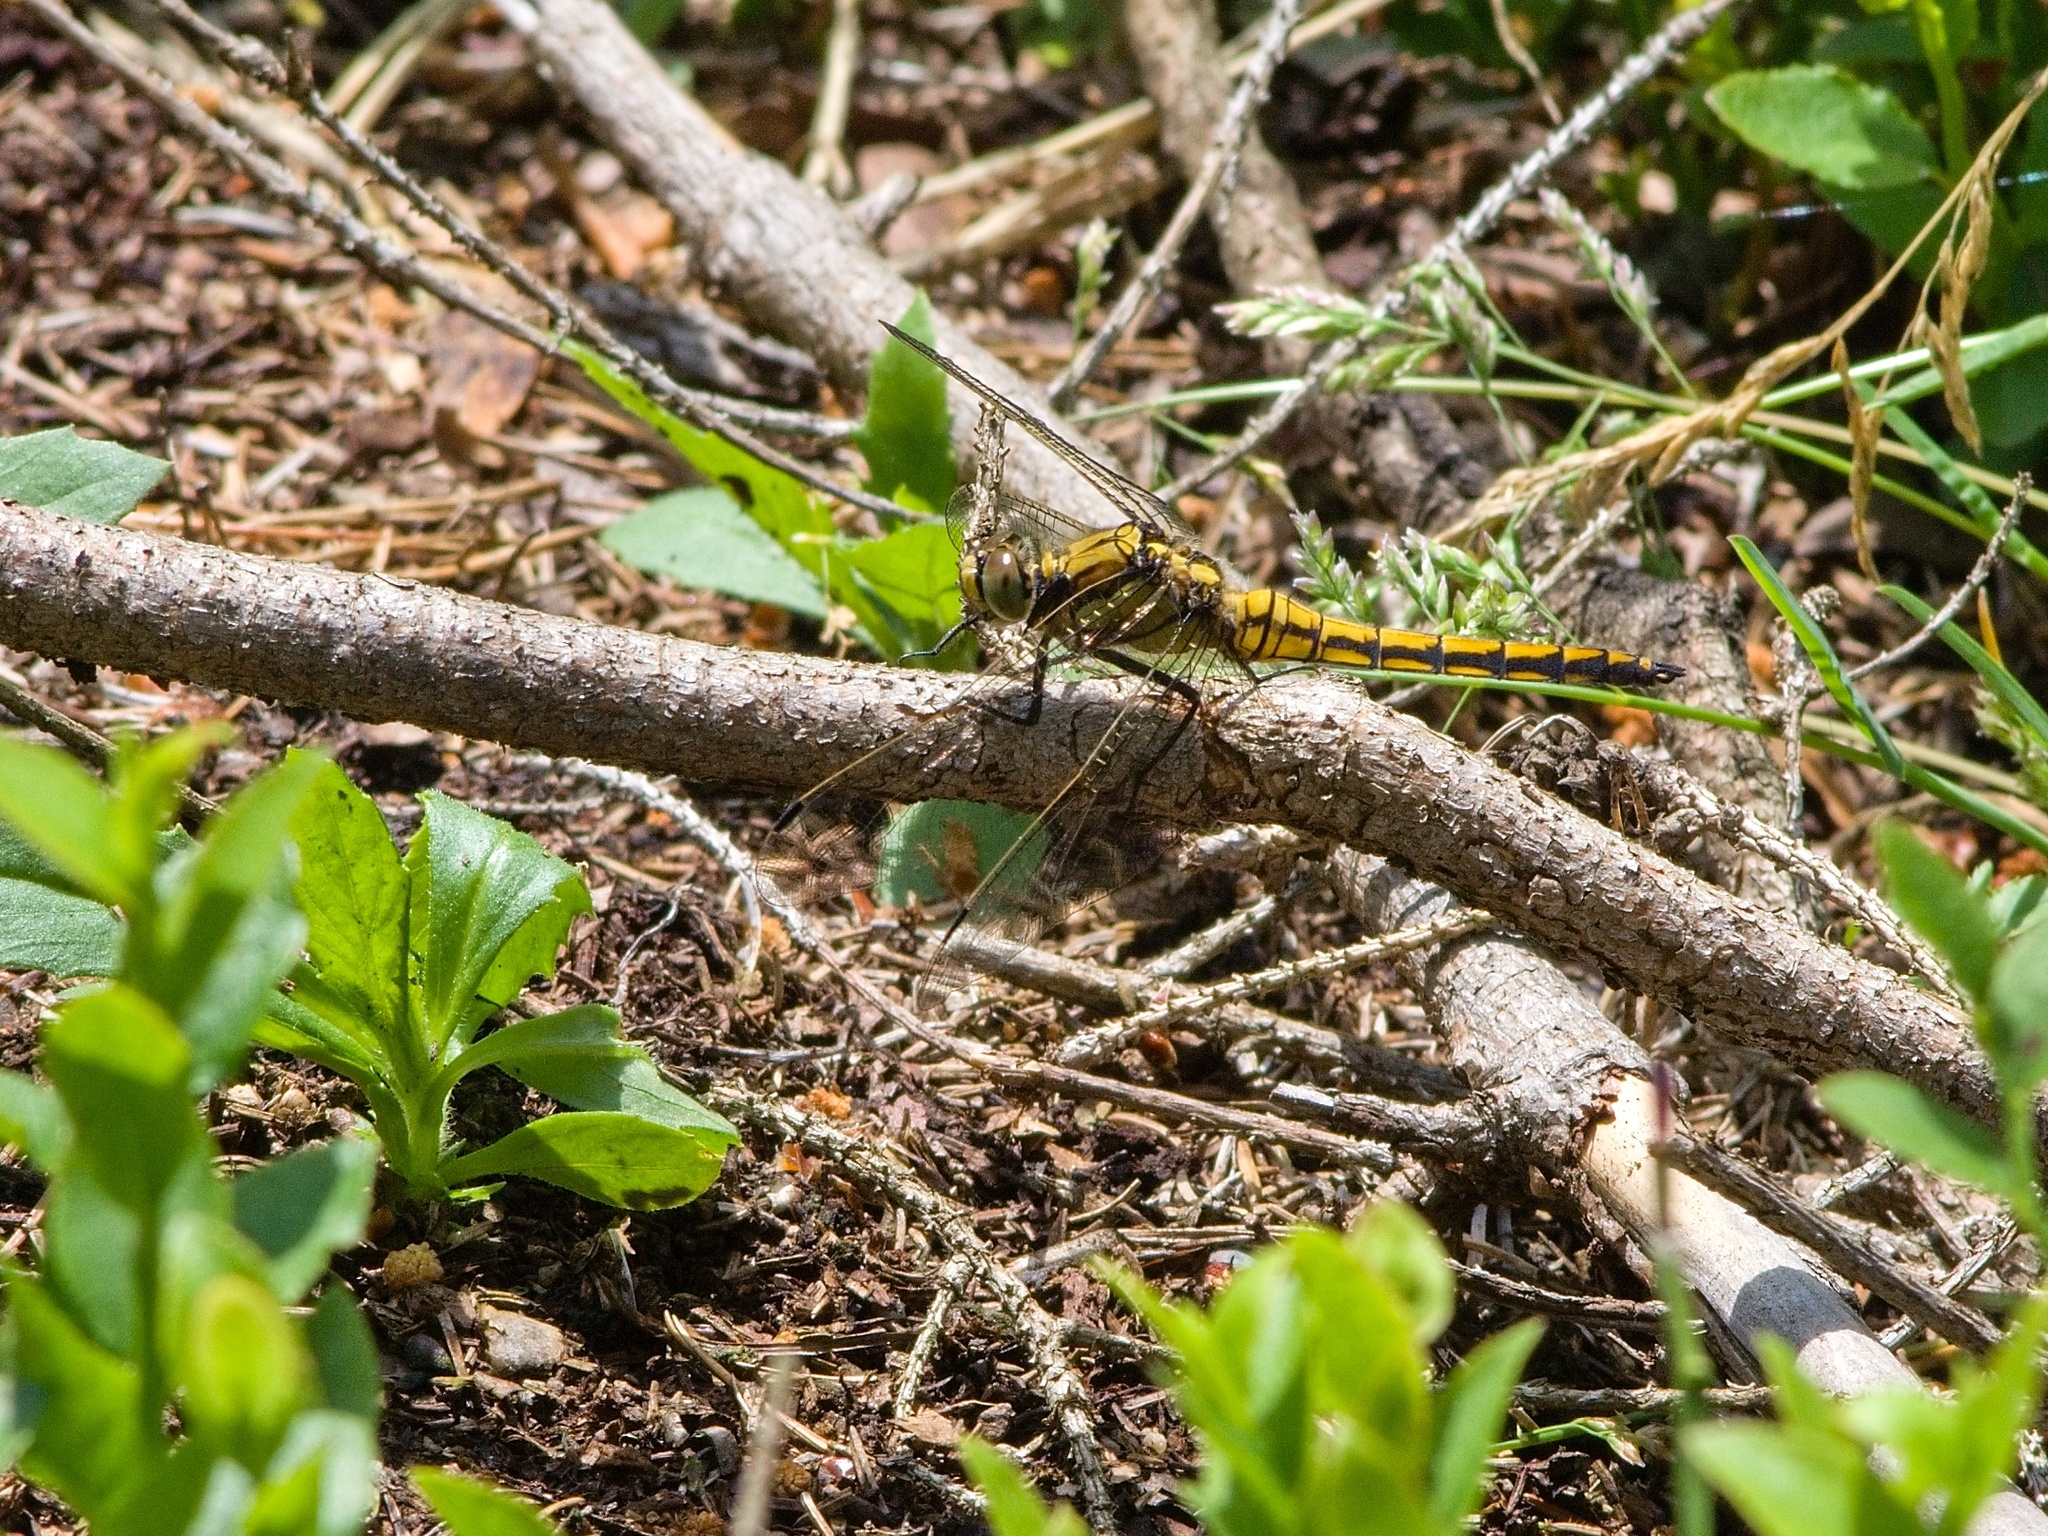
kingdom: Animalia
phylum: Arthropoda
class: Insecta
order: Odonata
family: Libellulidae
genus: Orthetrum
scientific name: Orthetrum cancellatum
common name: Black-tailed skimmer
